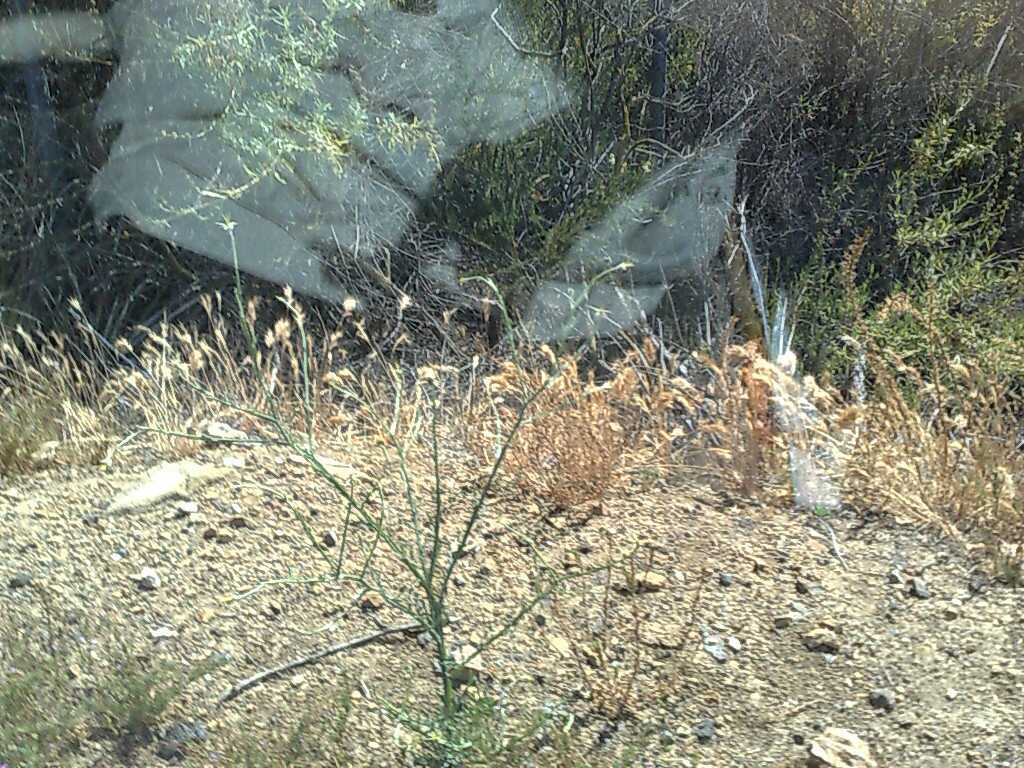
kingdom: Plantae
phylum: Tracheophyta
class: Liliopsida
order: Poales
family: Poaceae
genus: Bromus
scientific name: Bromus rubens
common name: Red brome
